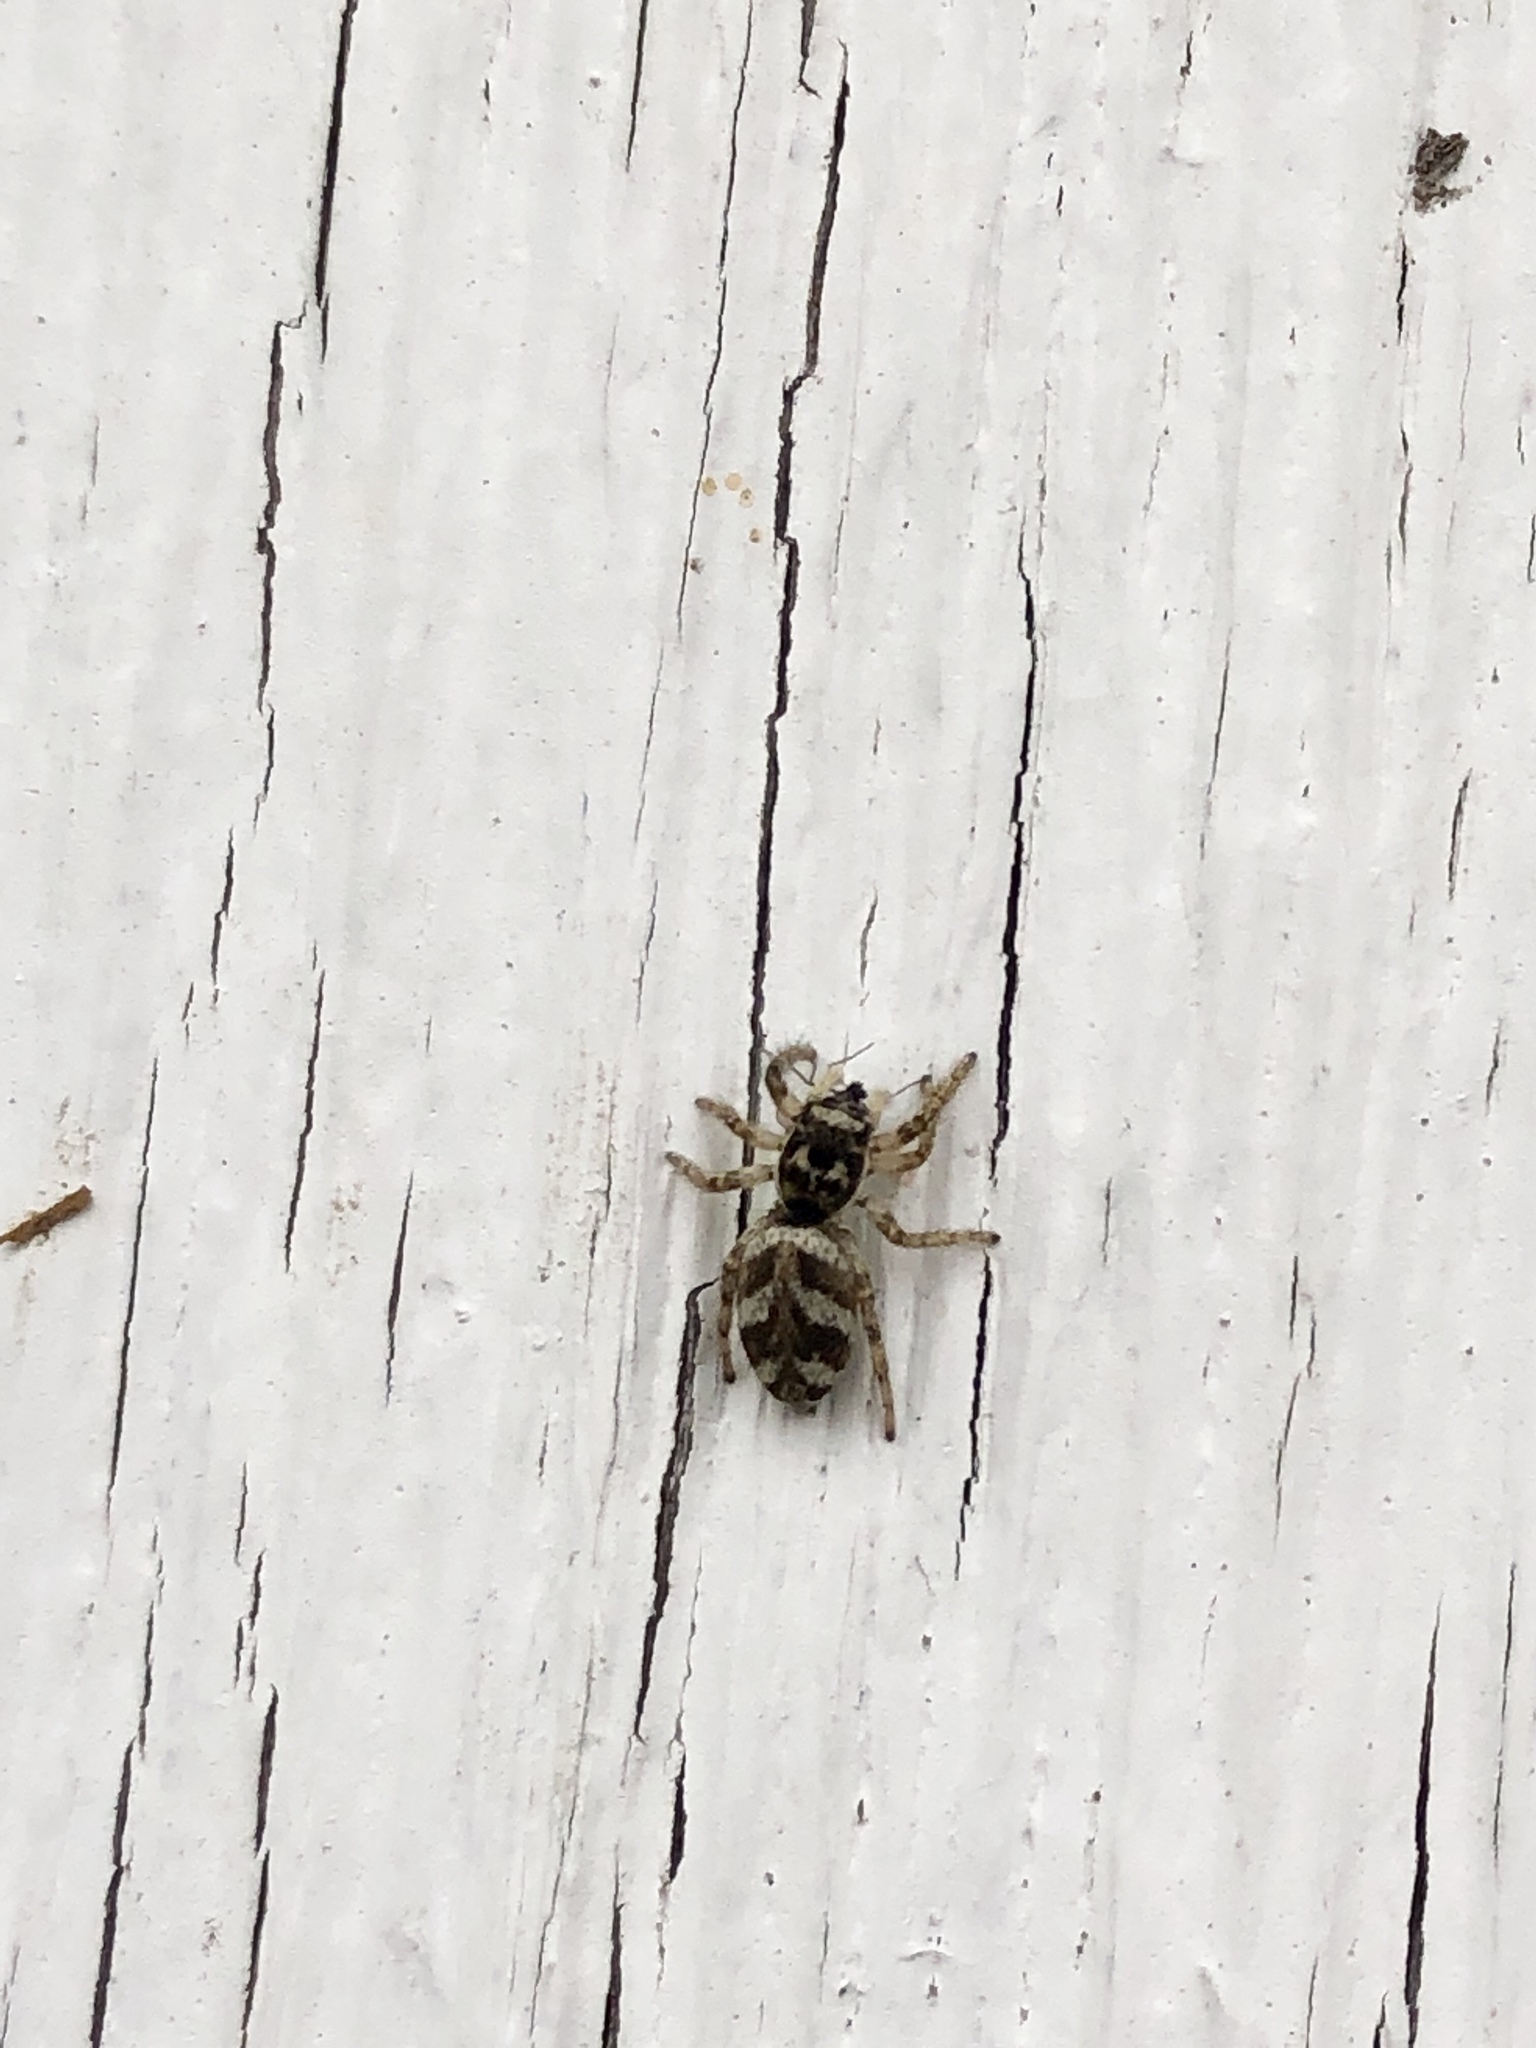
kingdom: Animalia
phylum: Arthropoda
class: Arachnida
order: Araneae
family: Salticidae
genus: Salticus
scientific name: Salticus scenicus
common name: Zebra jumper
